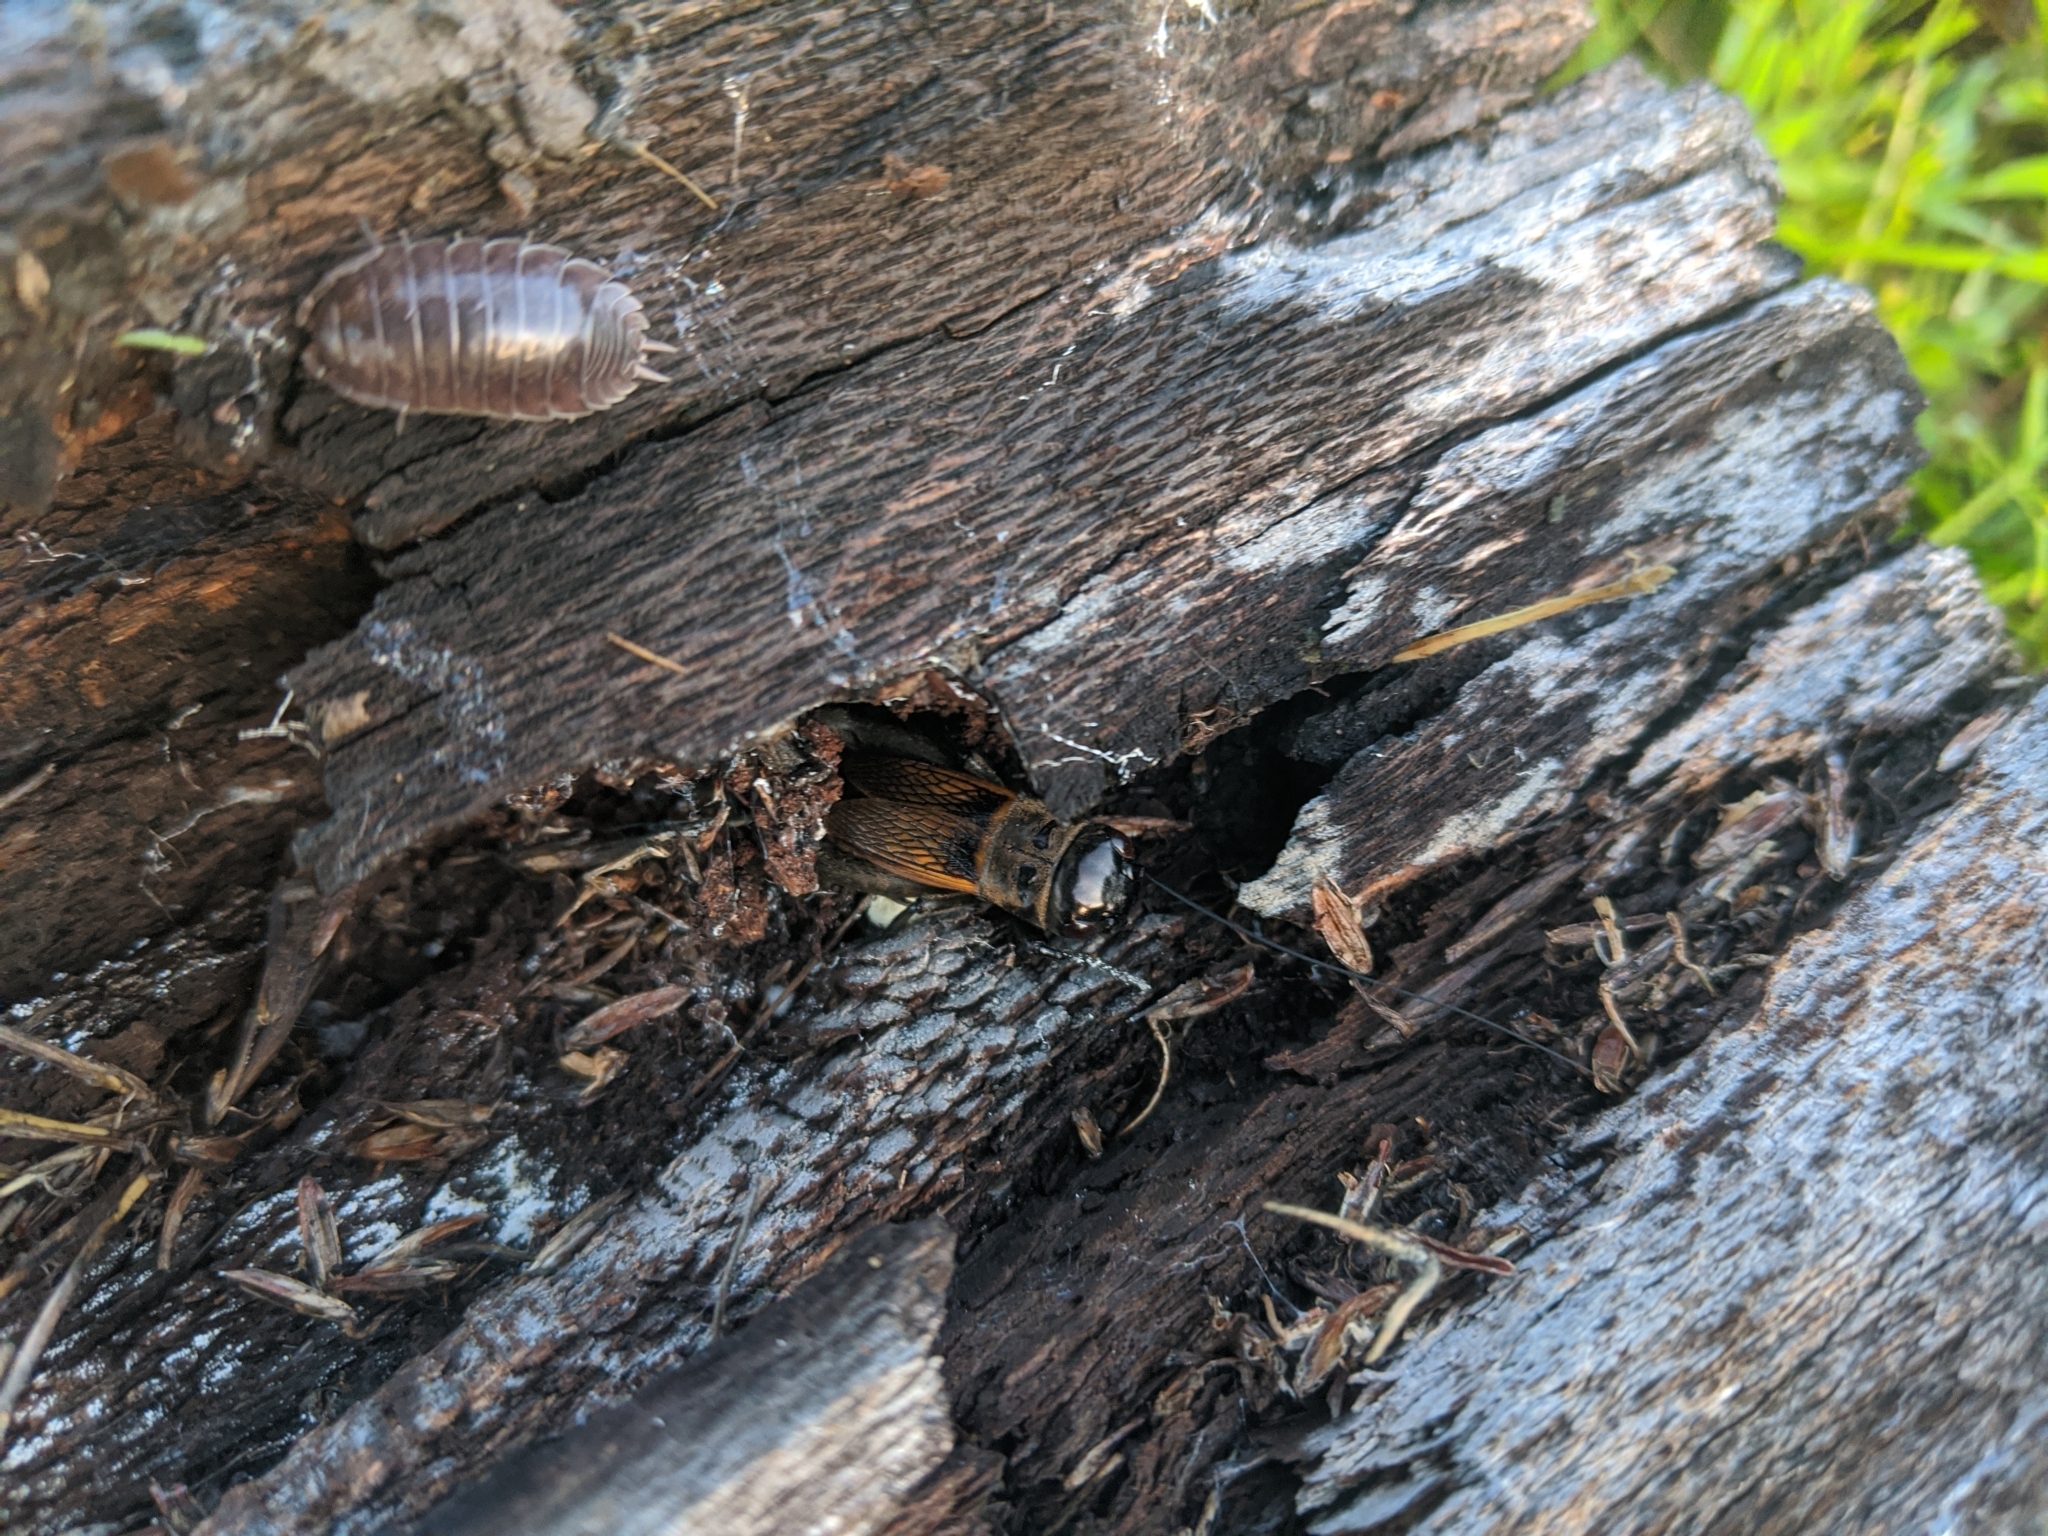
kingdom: Animalia
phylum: Arthropoda
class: Insecta
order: Orthoptera
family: Gryllidae
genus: Gryllus
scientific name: Gryllus
